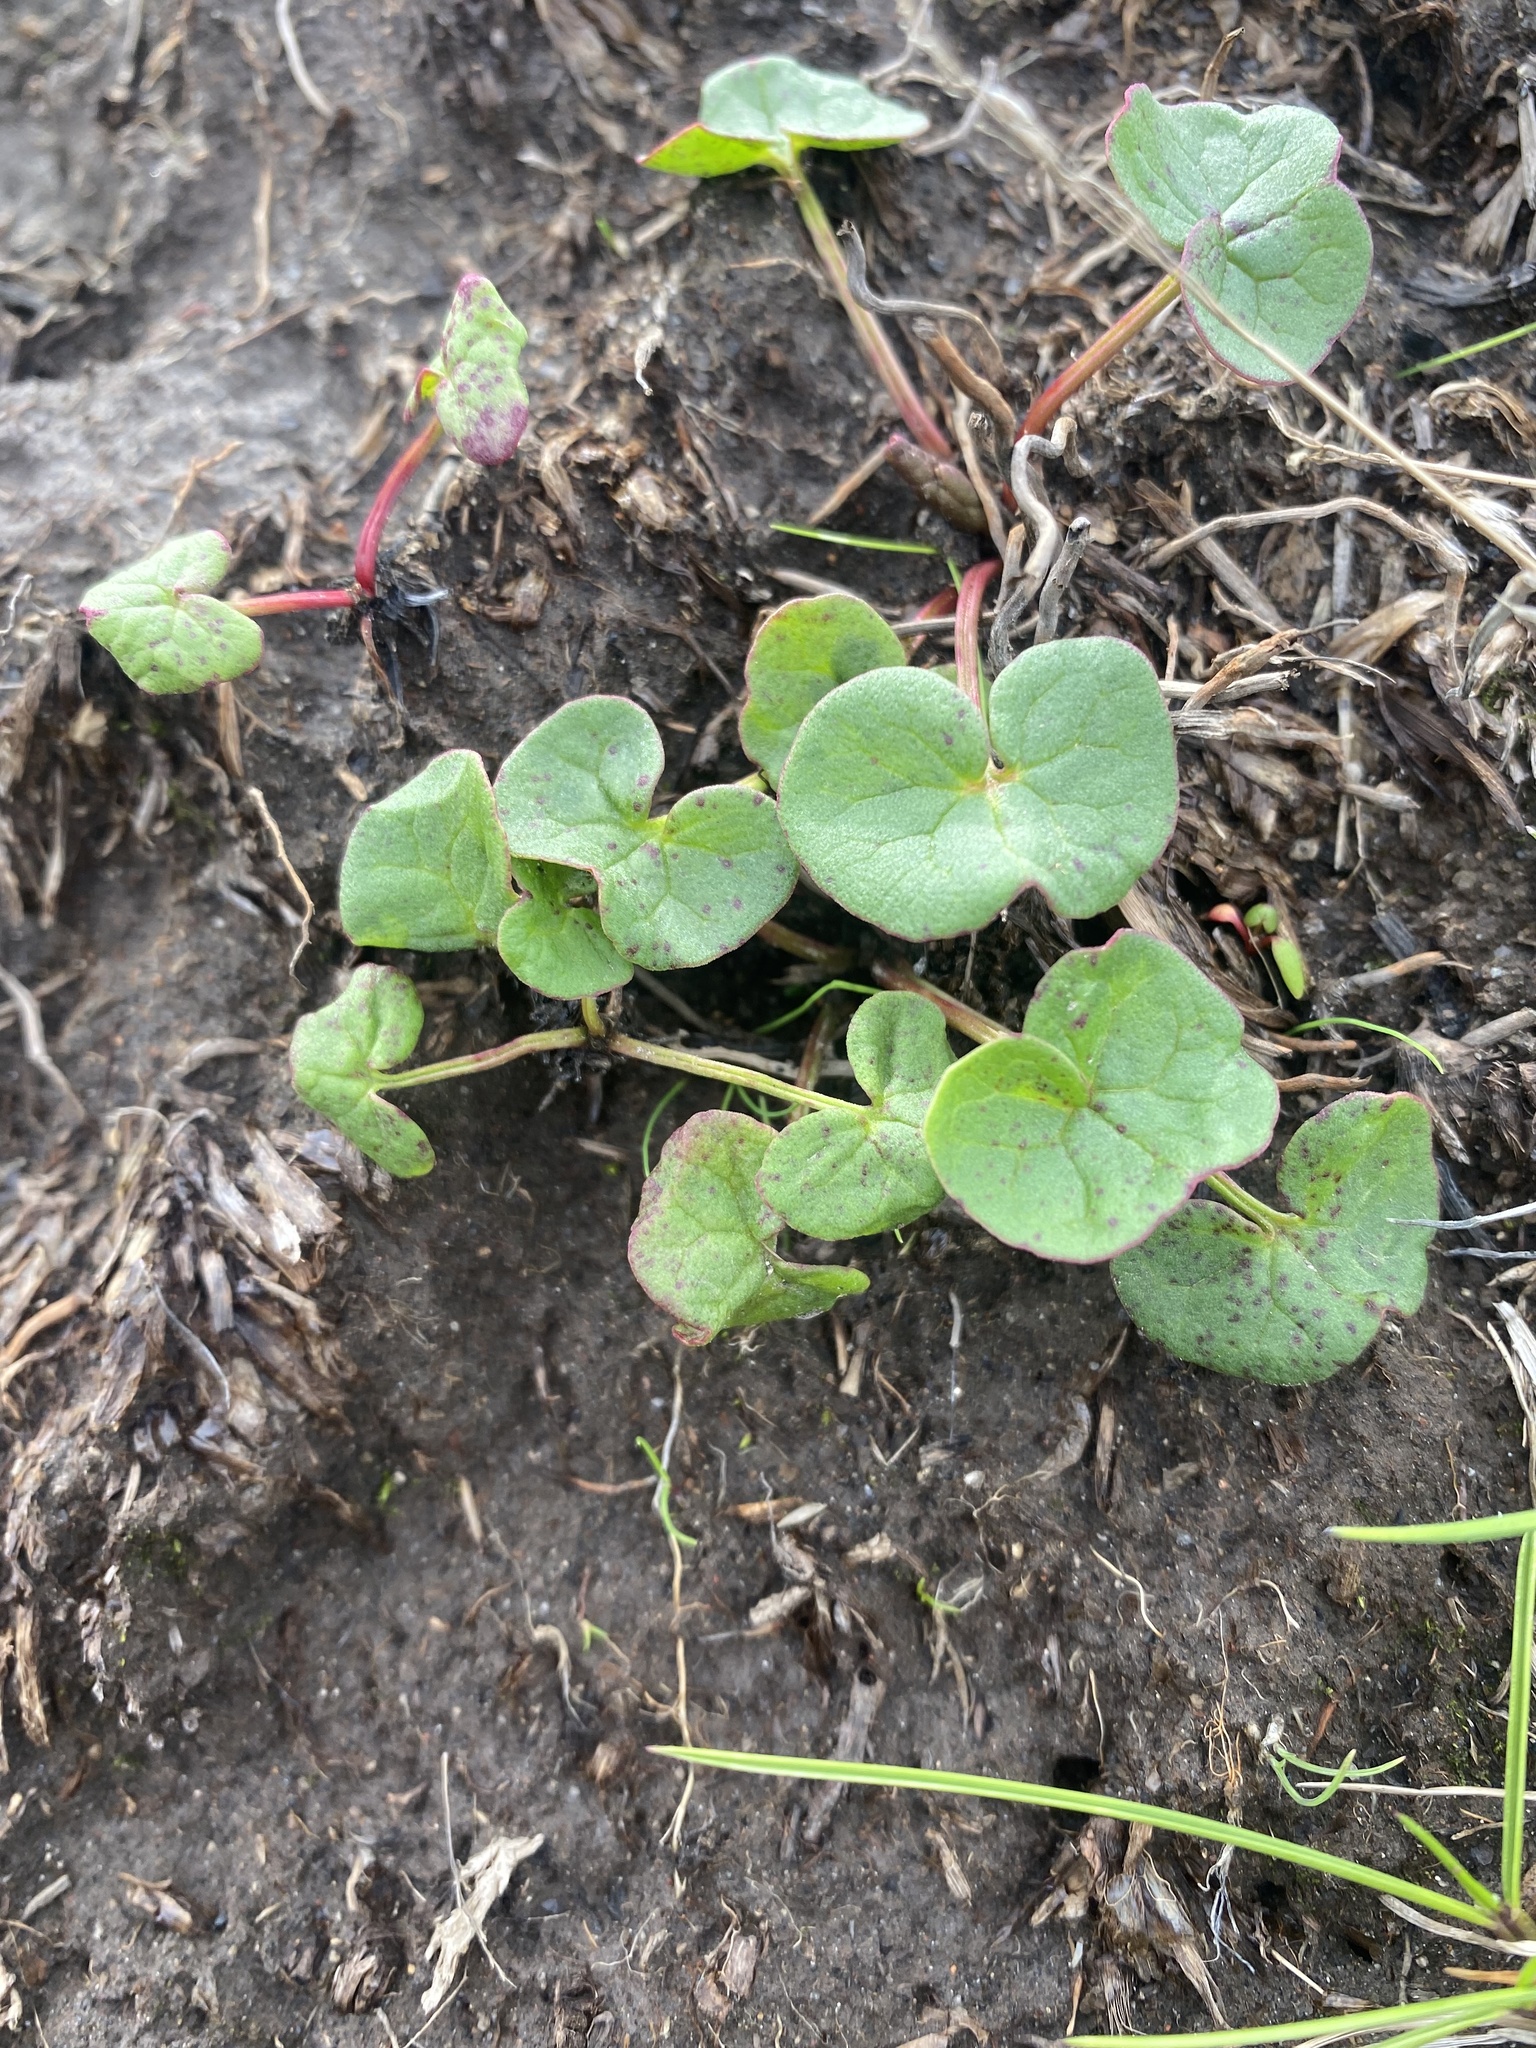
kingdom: Plantae
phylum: Tracheophyta
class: Magnoliopsida
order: Caryophyllales
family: Polygonaceae
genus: Oxyria
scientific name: Oxyria digyna
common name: Alpine mountain-sorrel
